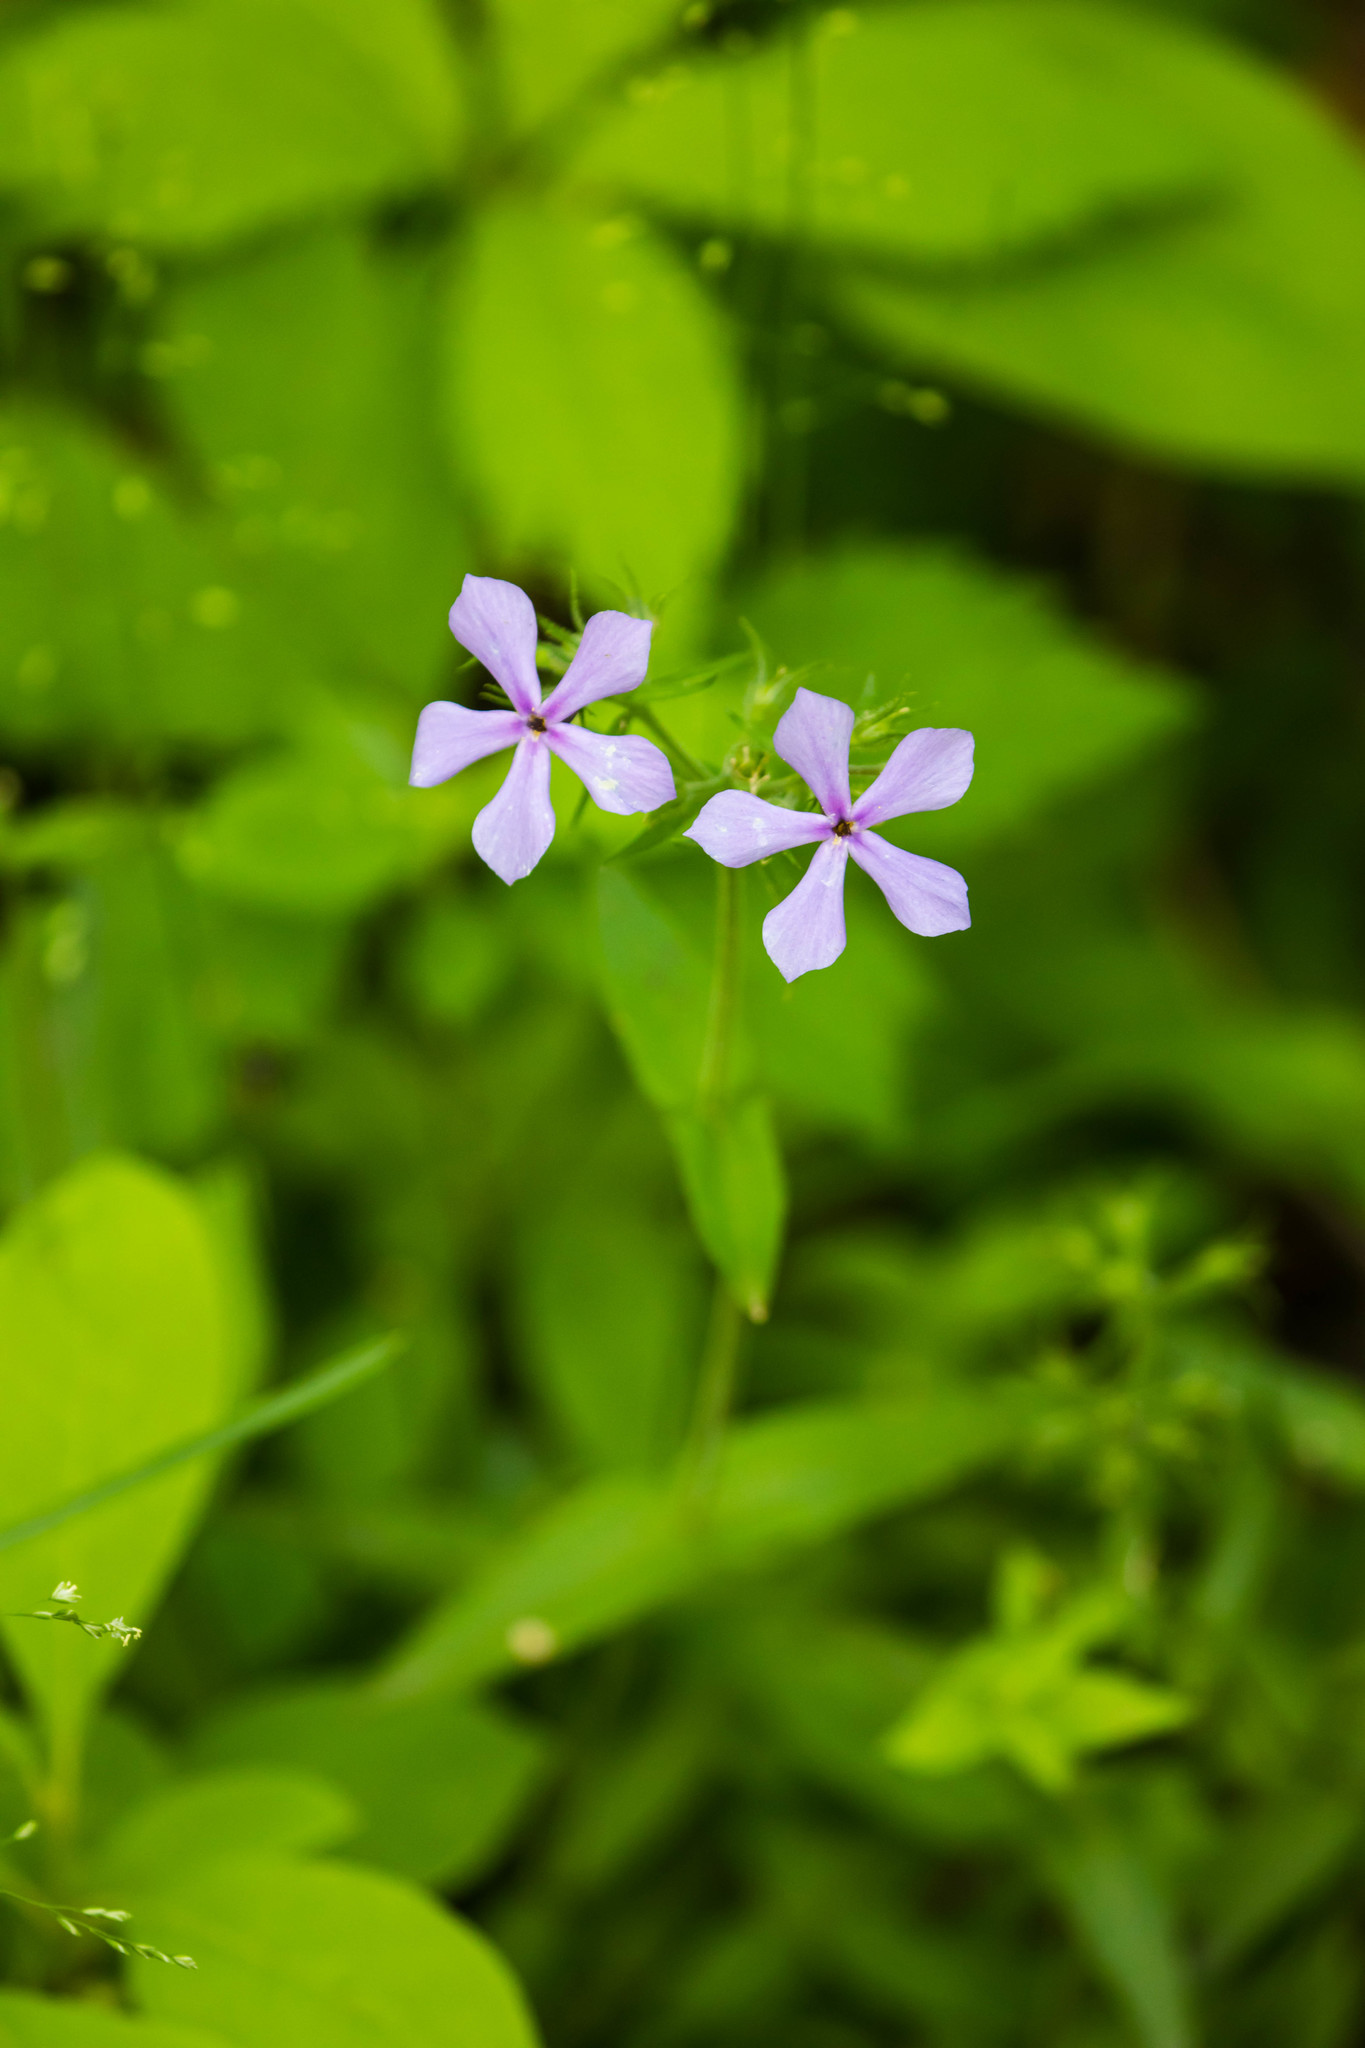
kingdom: Plantae
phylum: Tracheophyta
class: Magnoliopsida
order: Ericales
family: Polemoniaceae
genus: Phlox
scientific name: Phlox divaricata
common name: Blue phlox
